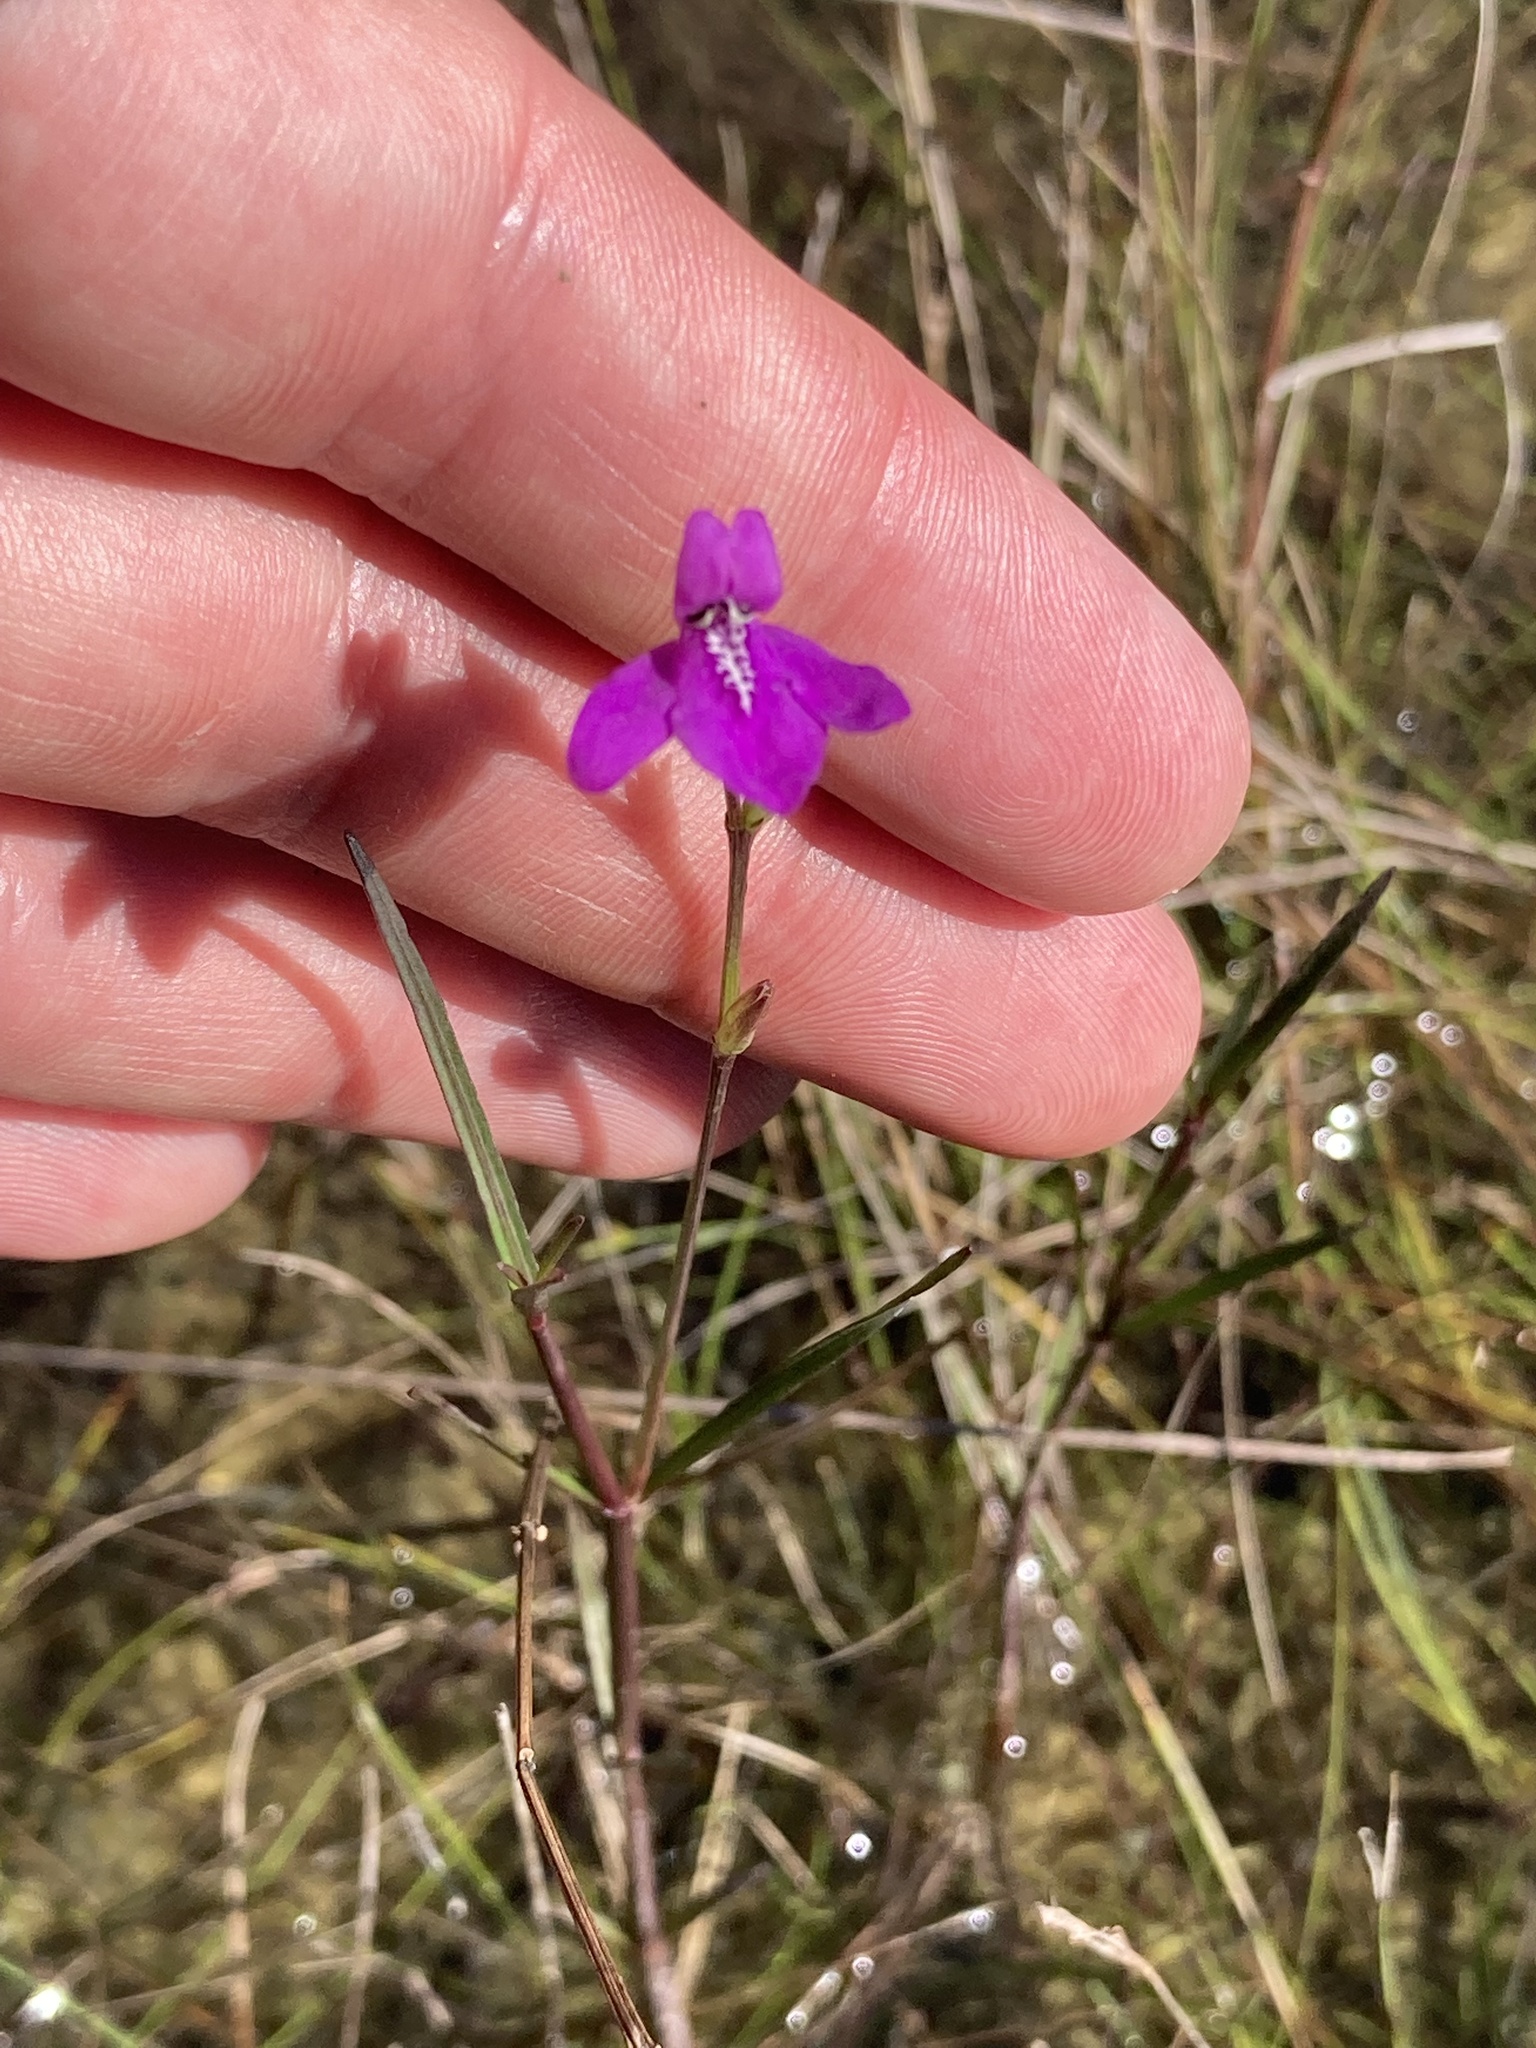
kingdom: Plantae
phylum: Tracheophyta
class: Magnoliopsida
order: Lamiales
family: Acanthaceae
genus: Dianthera
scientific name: Dianthera angusta
